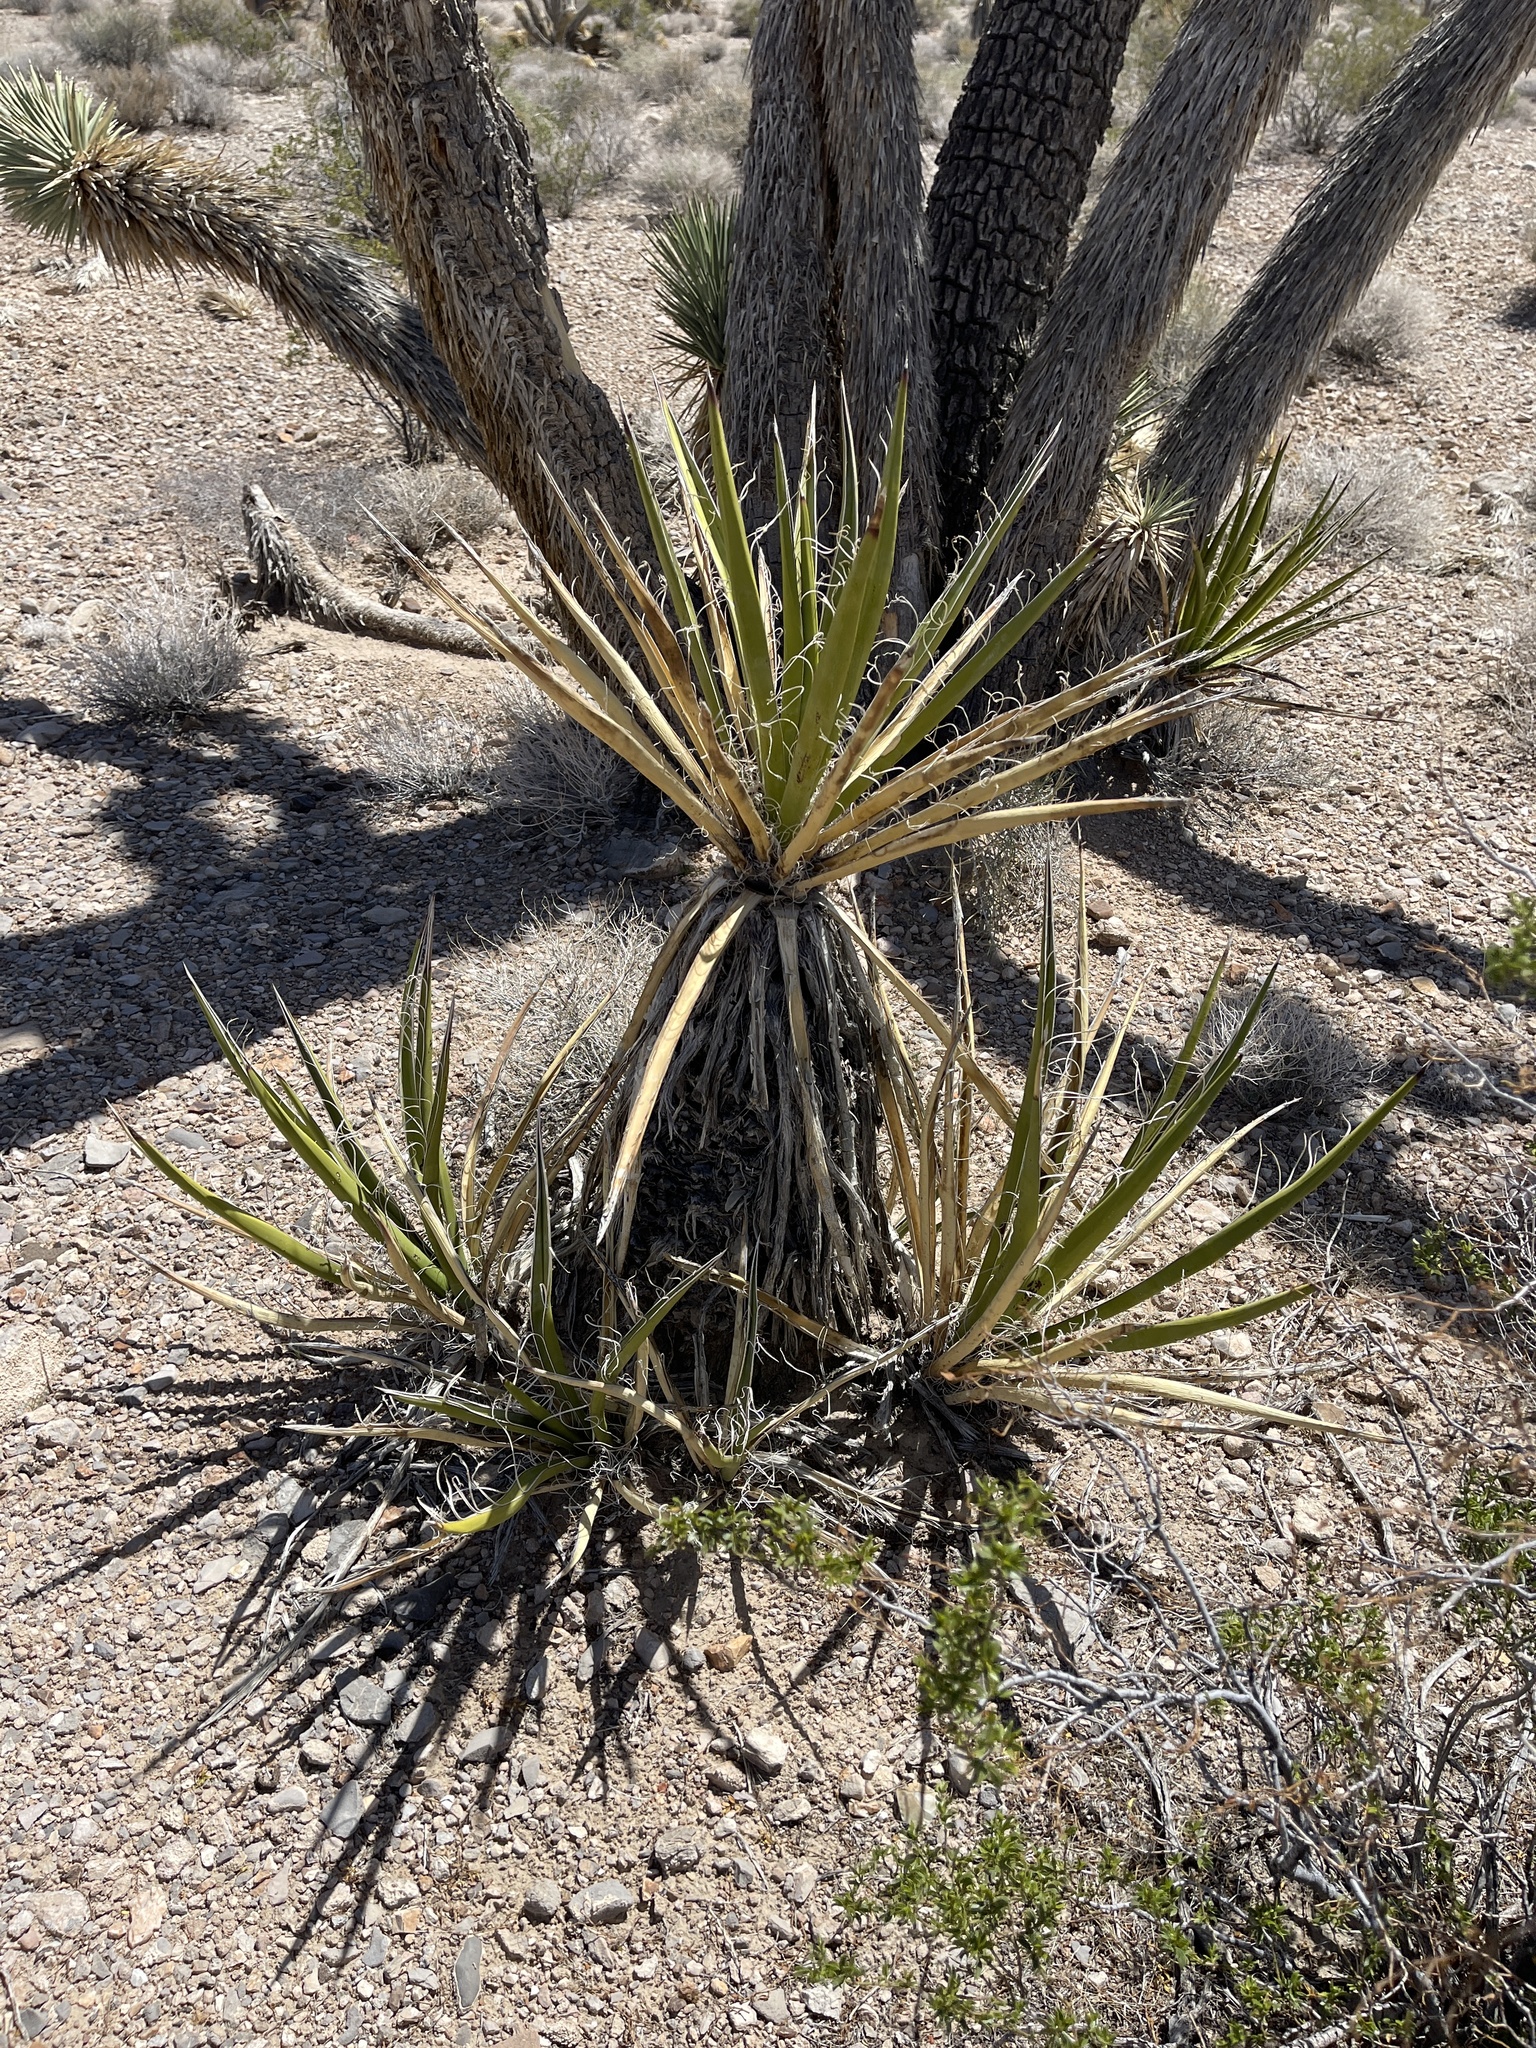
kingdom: Plantae
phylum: Tracheophyta
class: Liliopsida
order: Asparagales
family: Asparagaceae
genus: Yucca
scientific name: Yucca schidigera
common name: Mojave yucca
